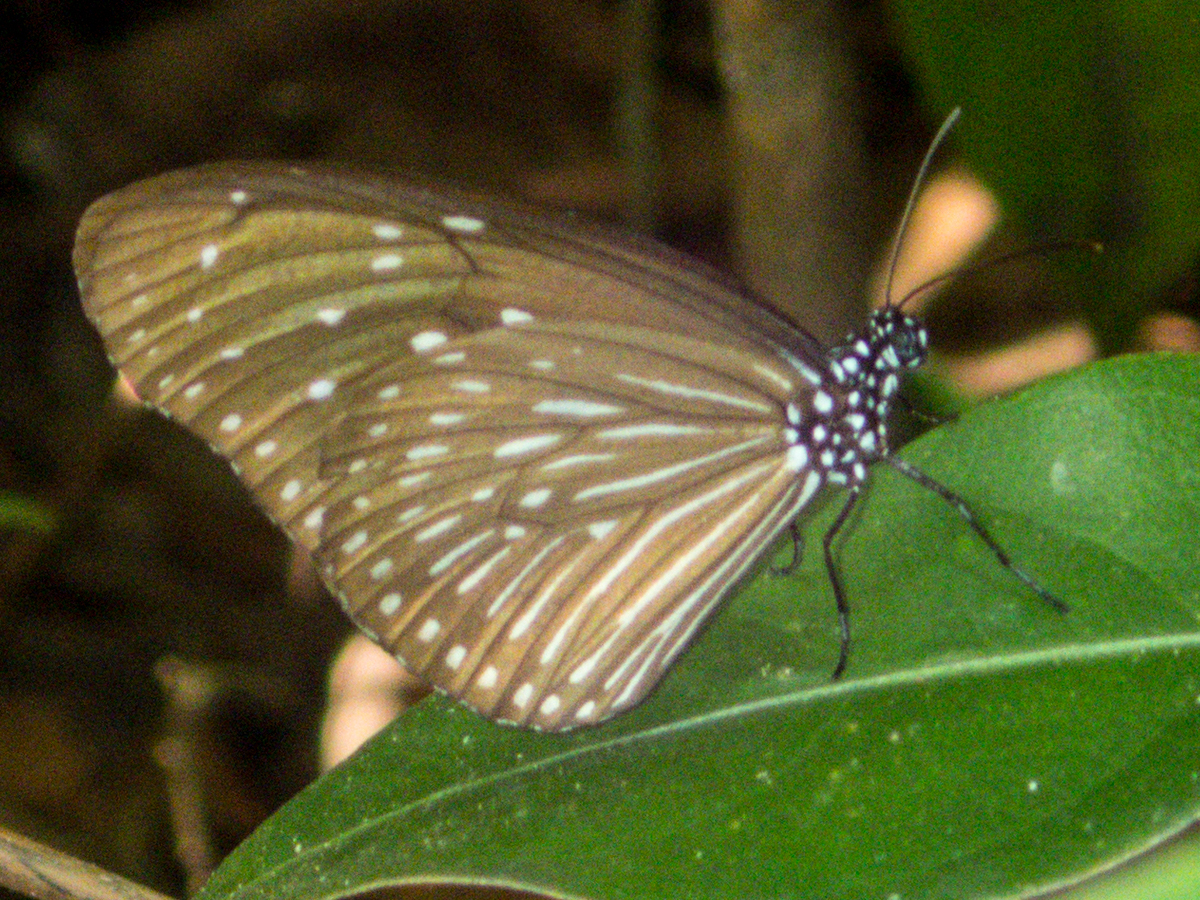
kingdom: Animalia
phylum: Arthropoda
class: Insecta
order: Lepidoptera
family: Nymphalidae
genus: Euploea
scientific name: Euploea mulciber
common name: Striped blue crow butterfly
